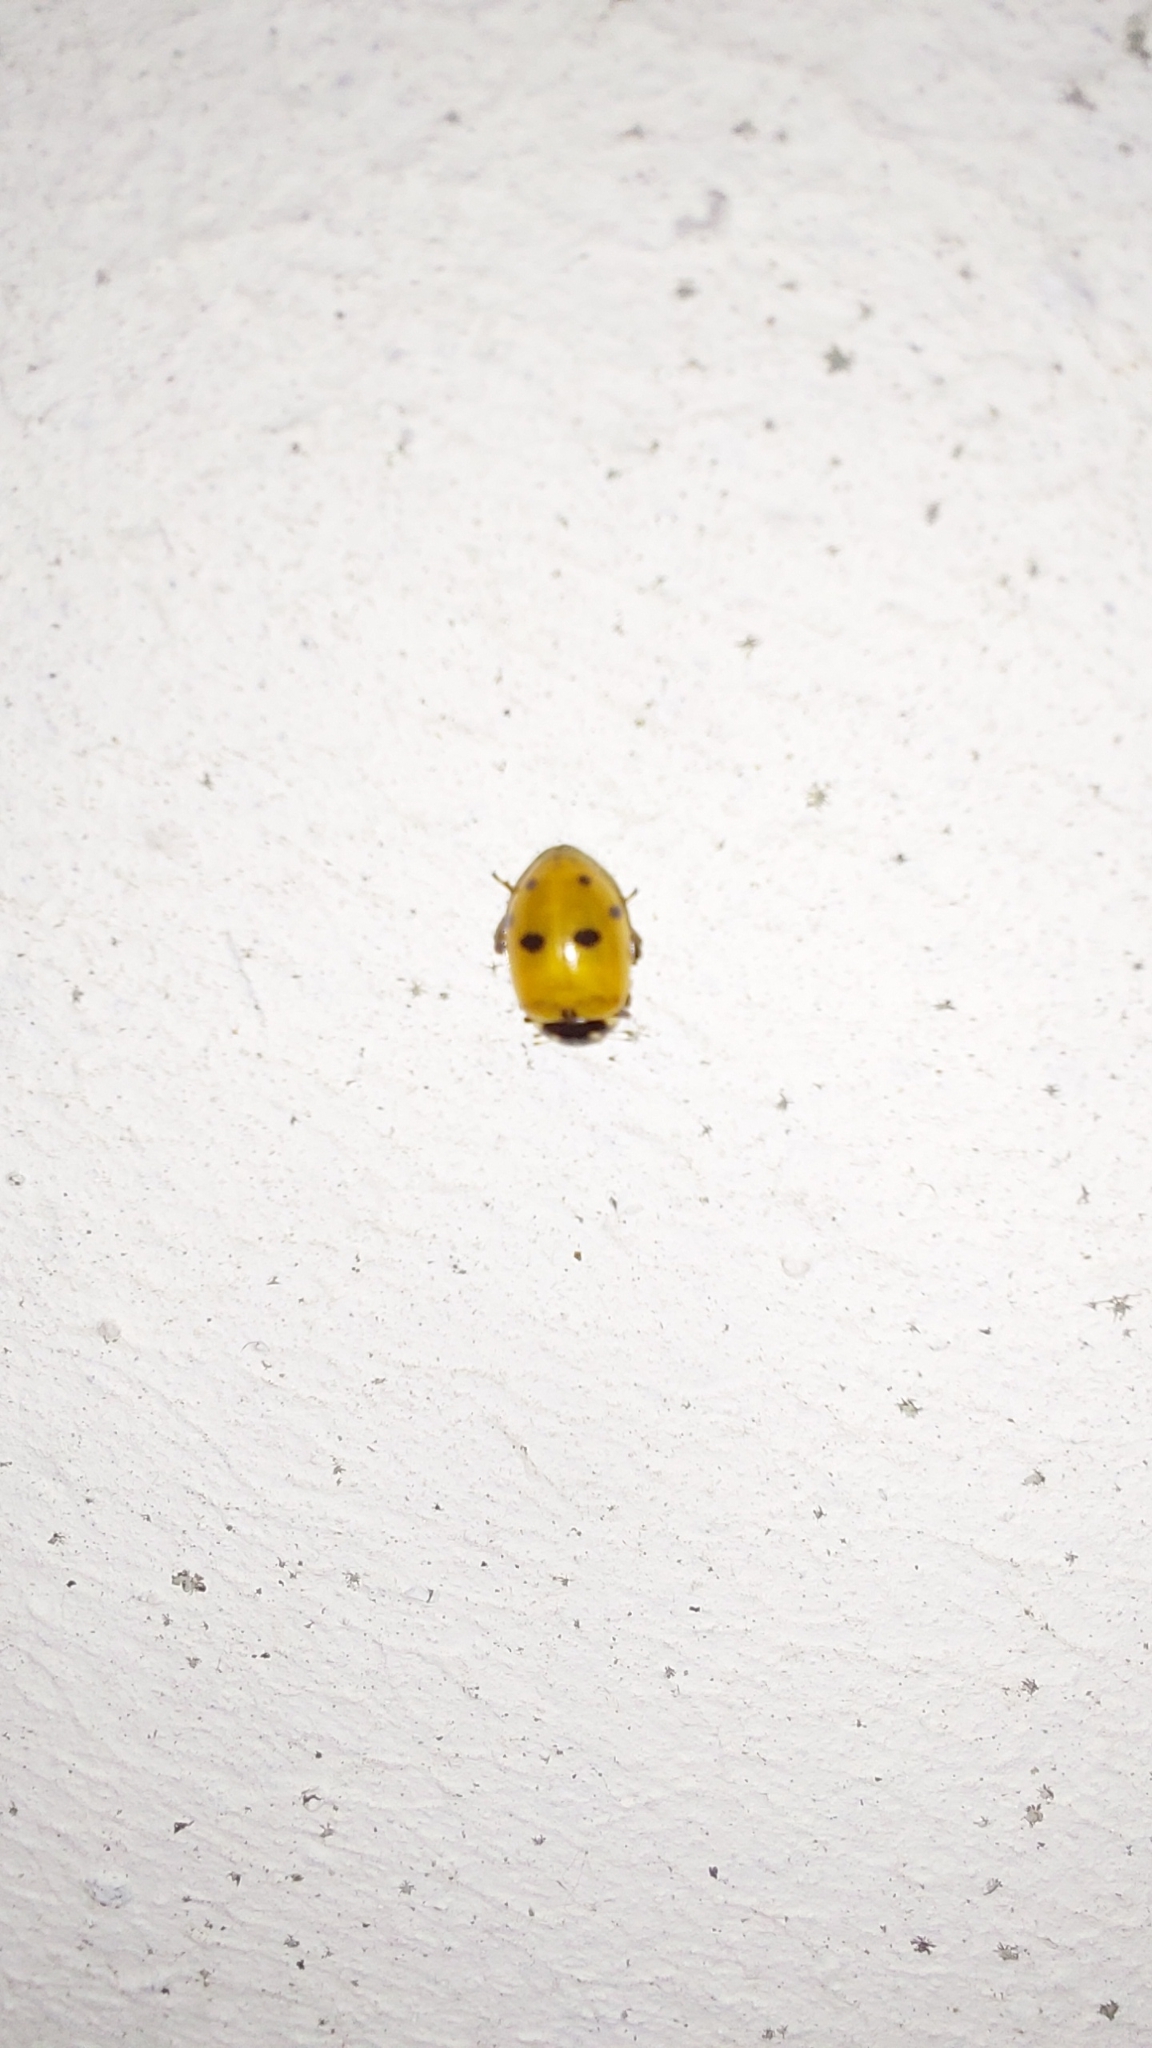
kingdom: Animalia
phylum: Arthropoda
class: Insecta
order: Coleoptera
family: Coccinellidae
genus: Hippodamia
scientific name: Hippodamia variegata
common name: Ladybird beetle
